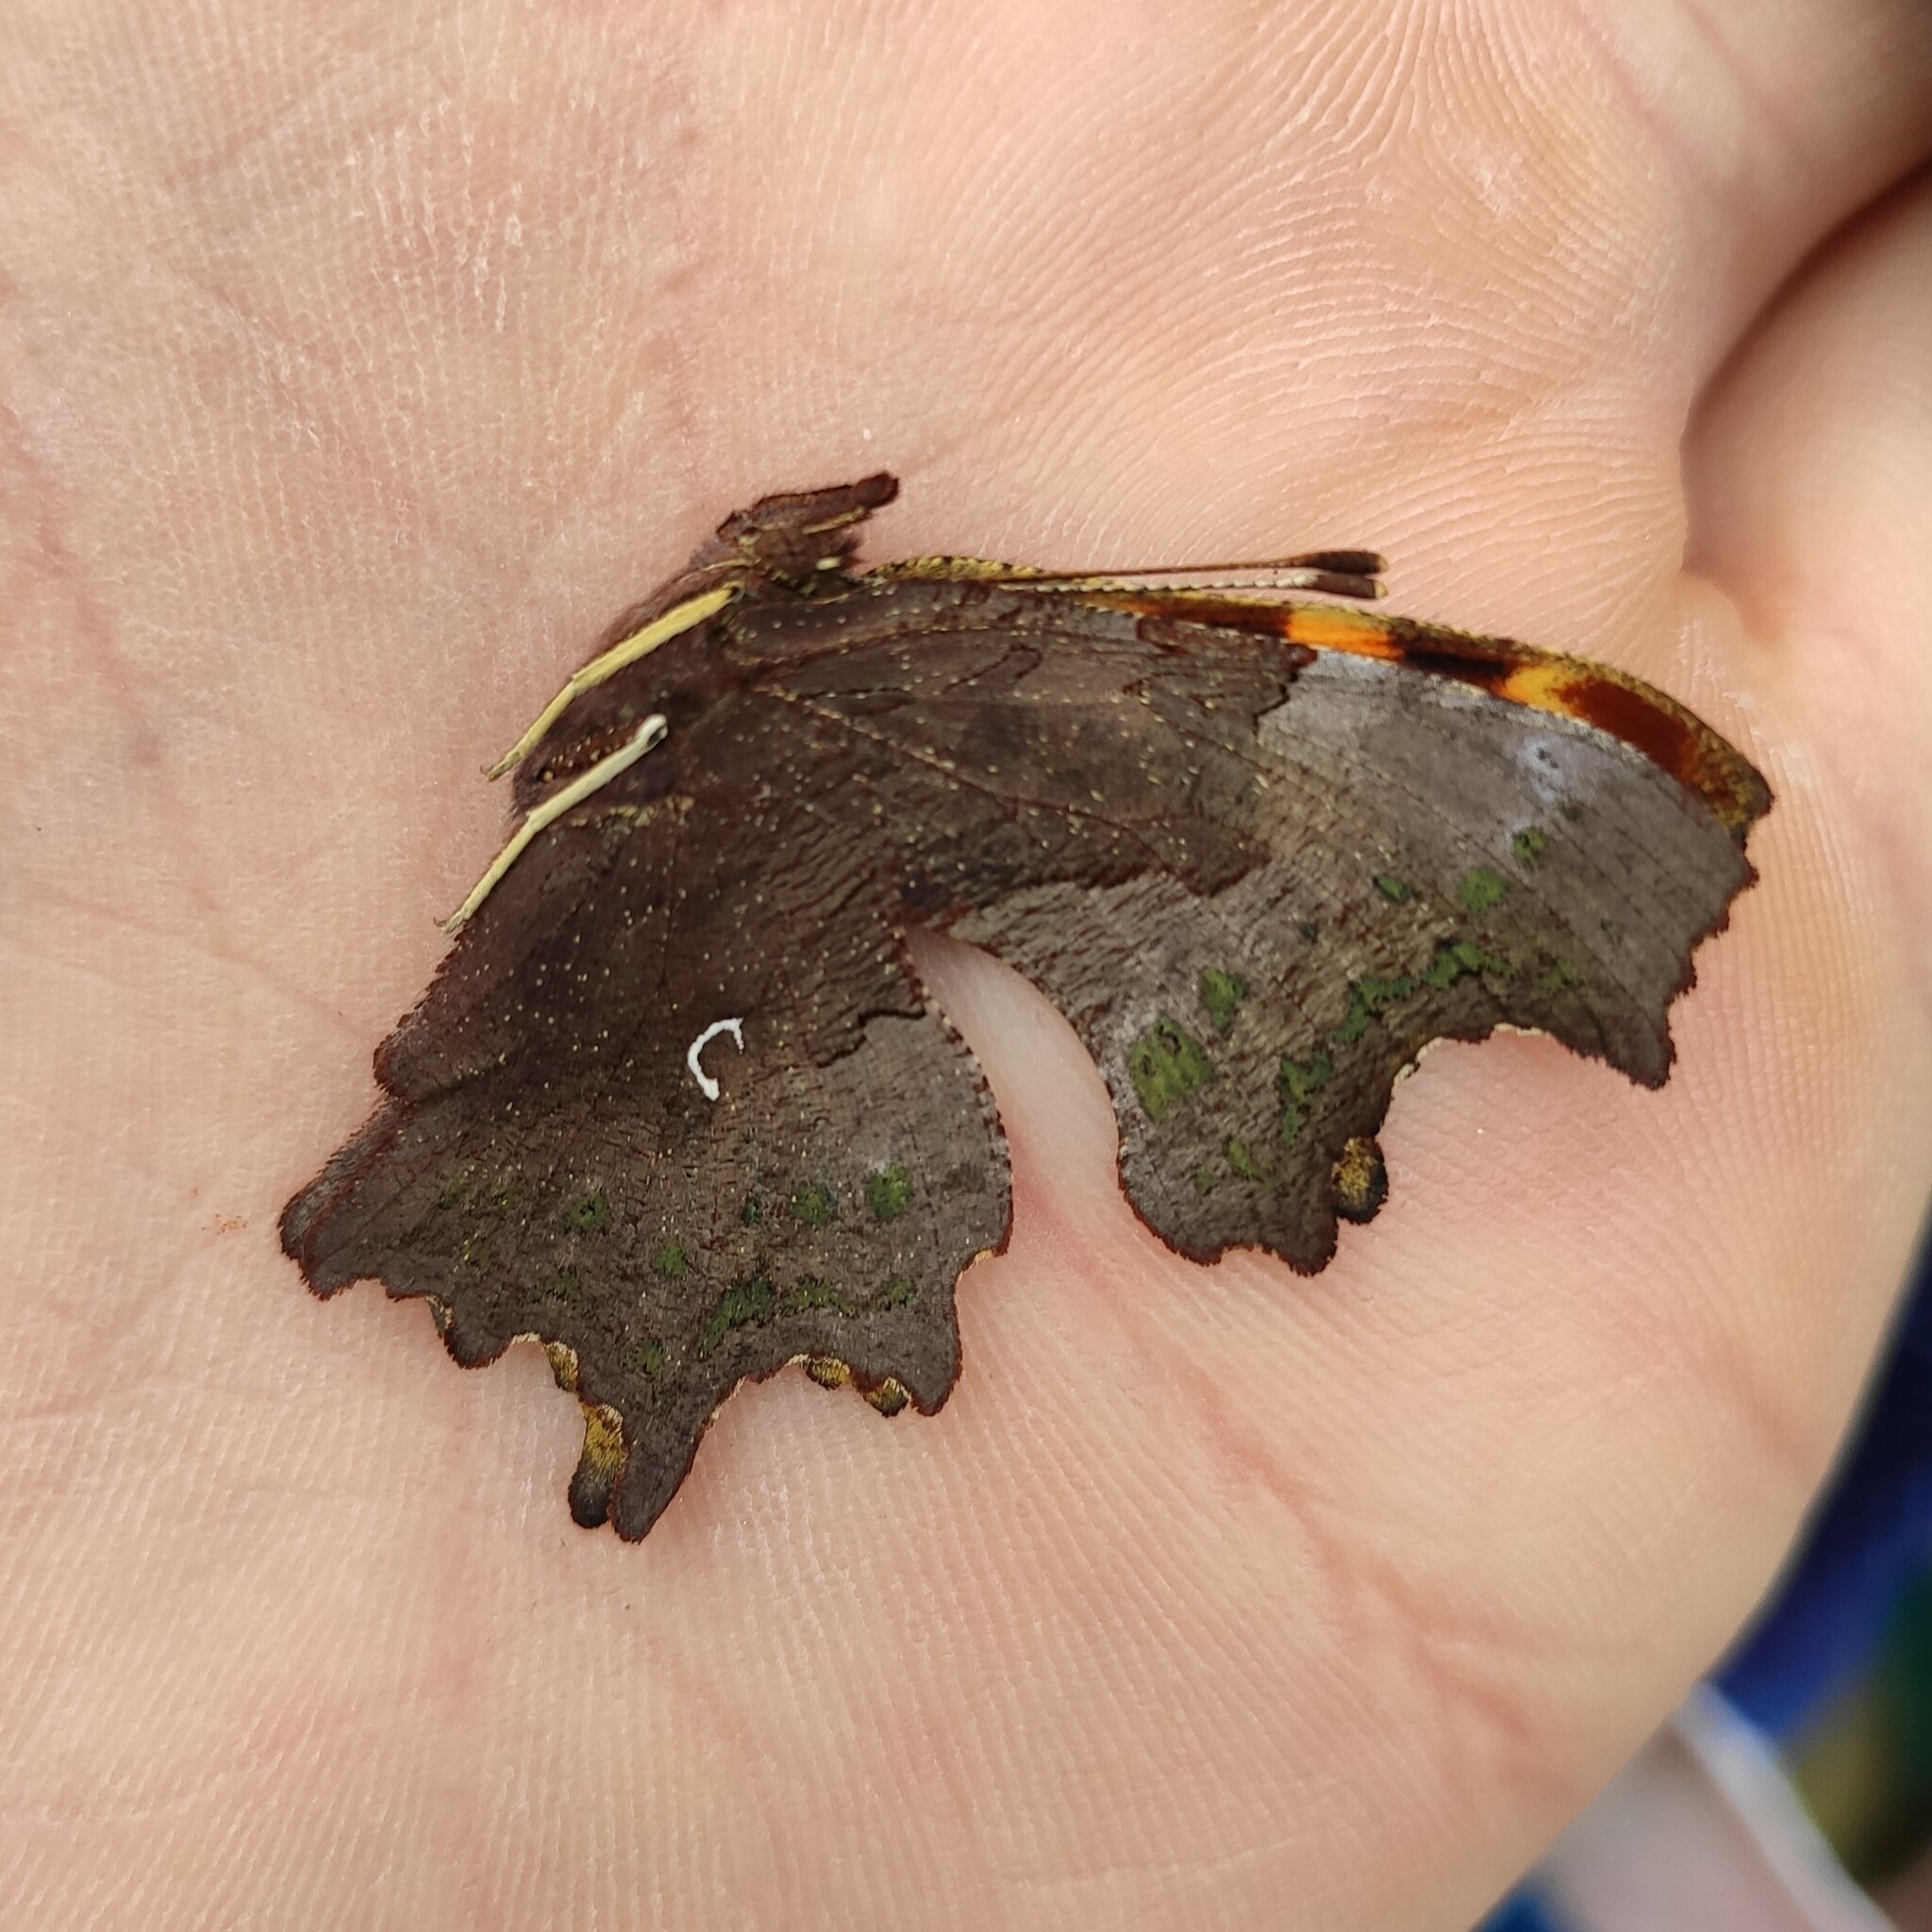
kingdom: Animalia
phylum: Arthropoda
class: Insecta
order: Lepidoptera
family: Nymphalidae
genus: Polygonia
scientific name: Polygonia c-album
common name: Comma
